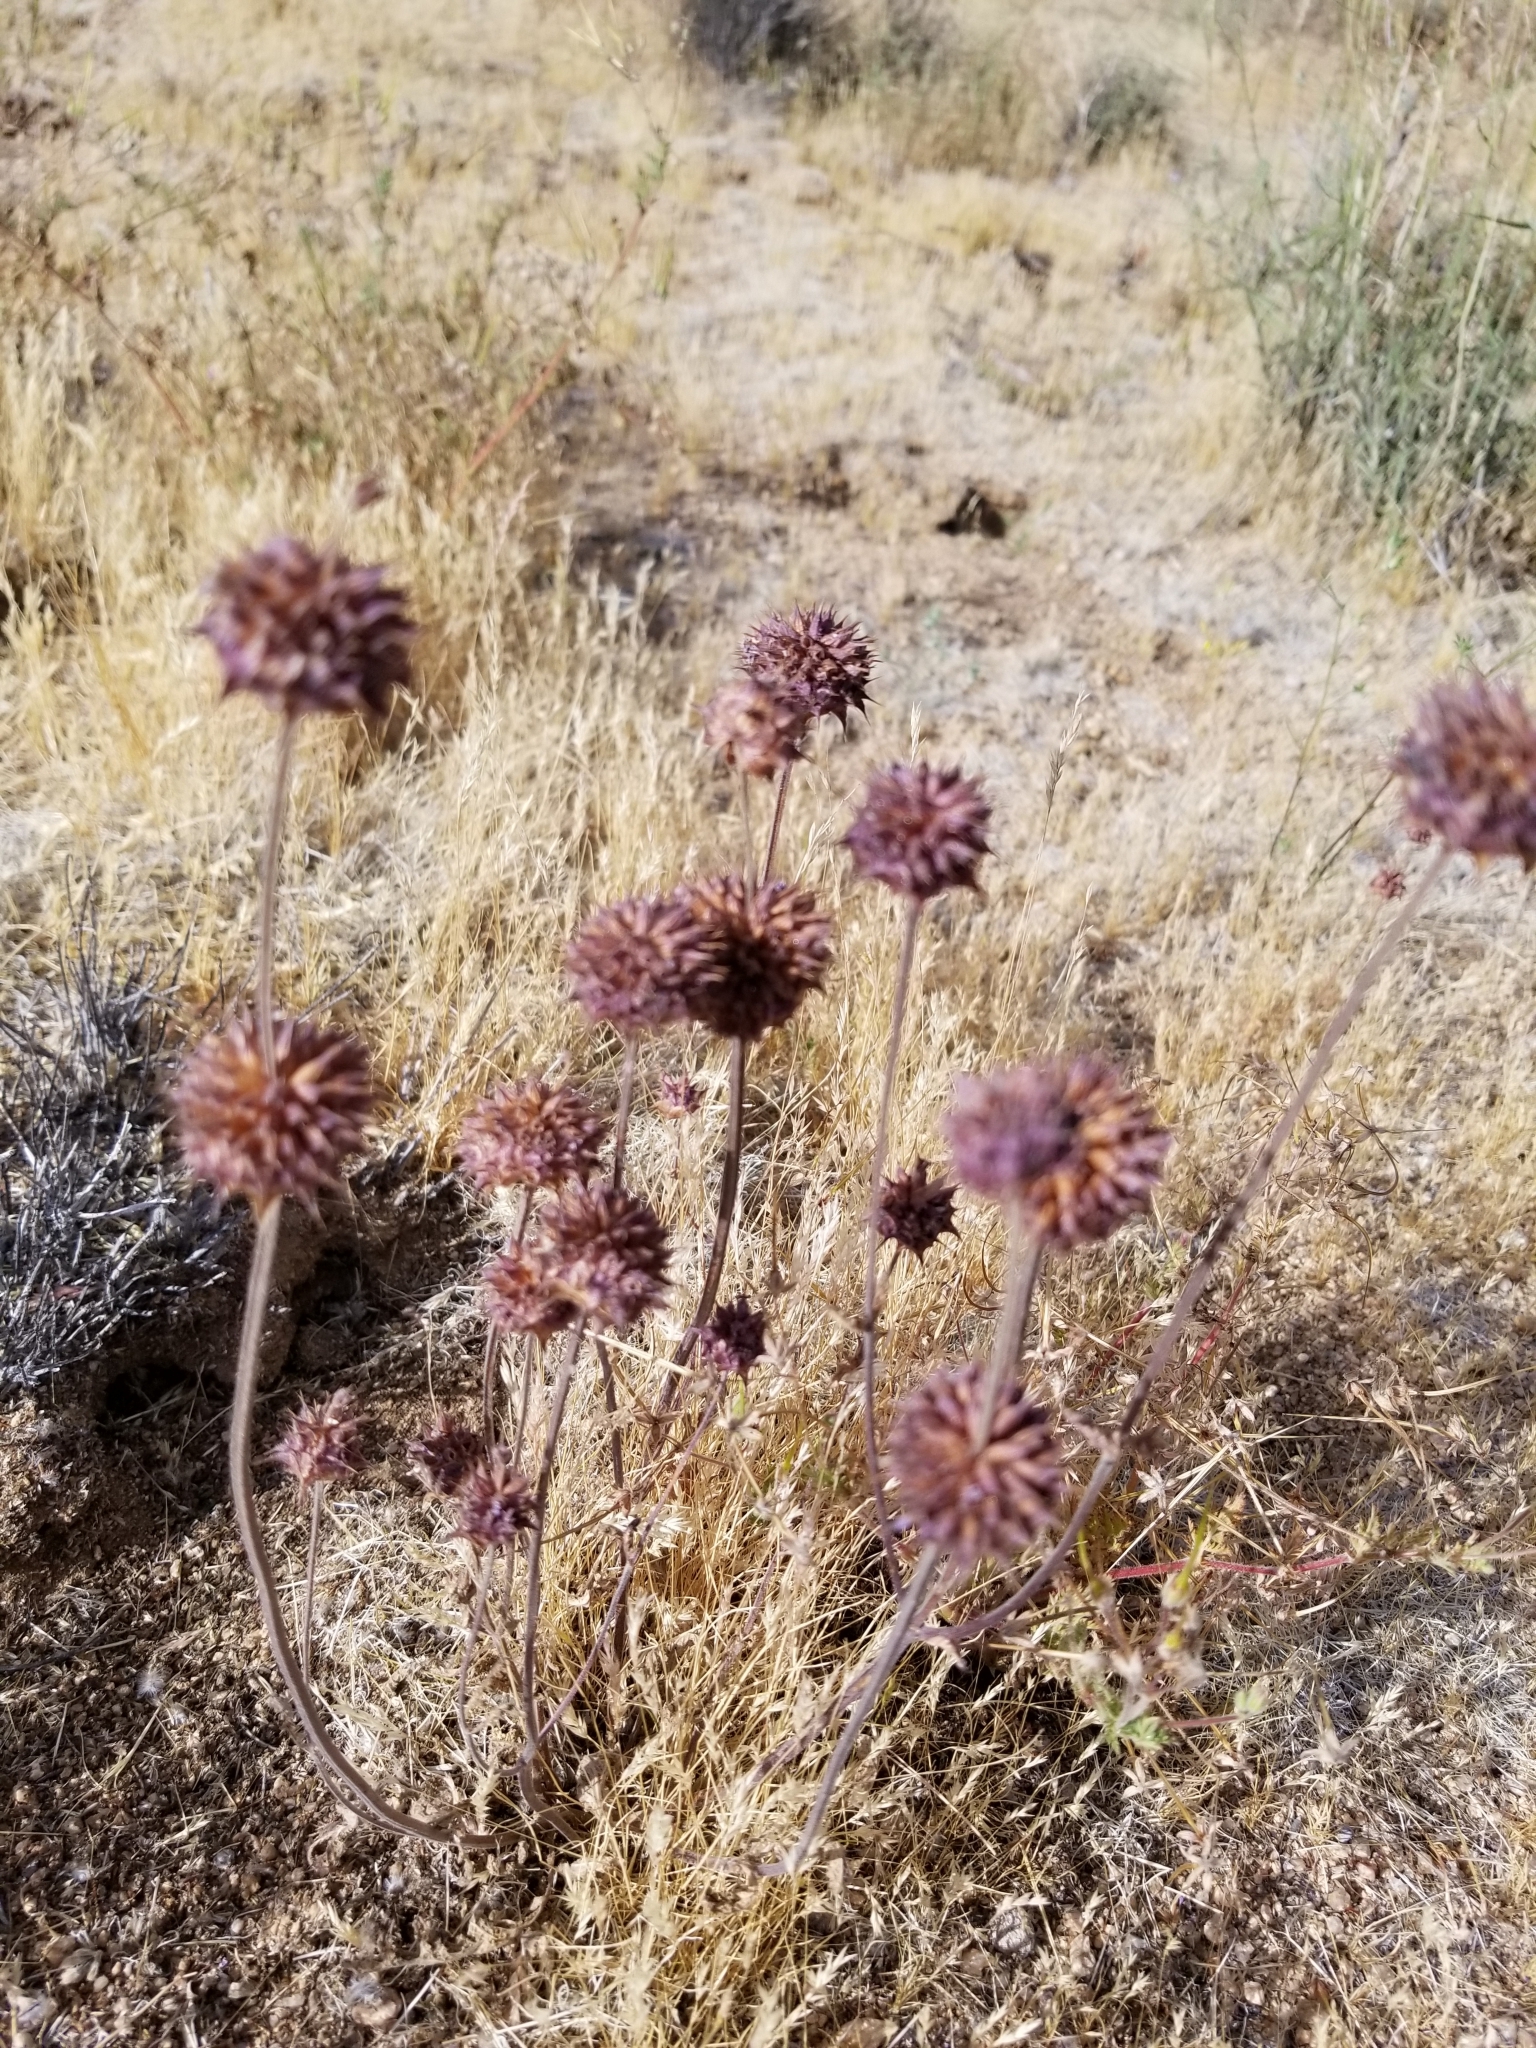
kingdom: Plantae
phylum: Tracheophyta
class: Magnoliopsida
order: Lamiales
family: Lamiaceae
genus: Salvia
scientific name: Salvia columbariae
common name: Chia
